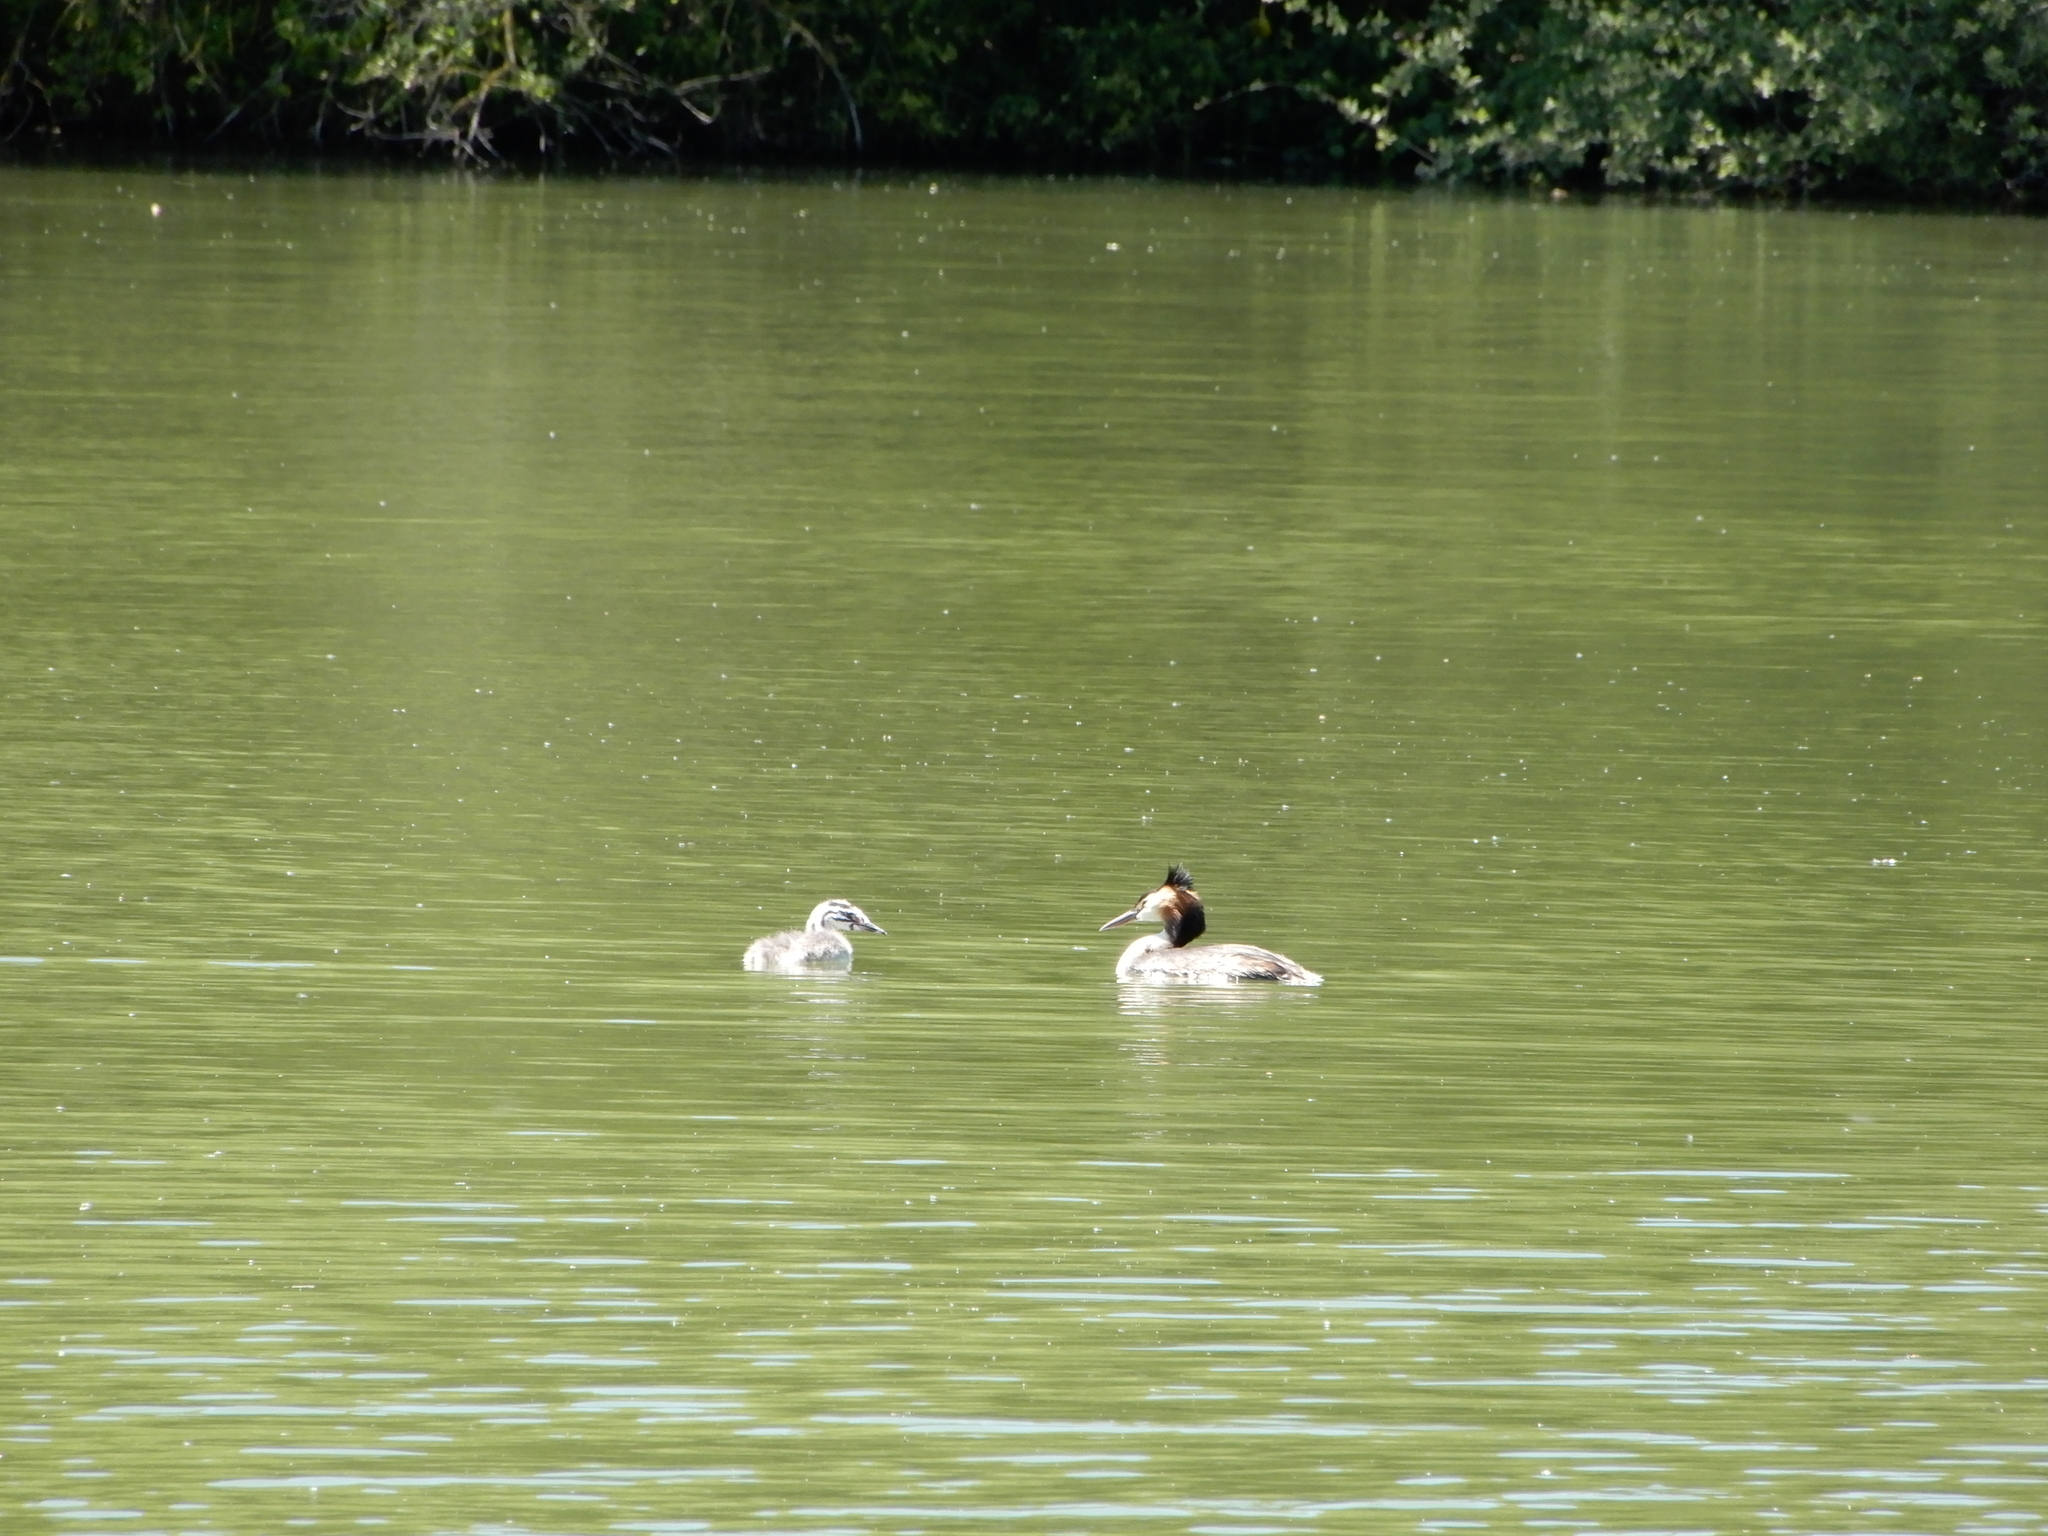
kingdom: Animalia
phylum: Chordata
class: Aves
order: Podicipediformes
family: Podicipedidae
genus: Podiceps
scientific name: Podiceps cristatus
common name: Great crested grebe
